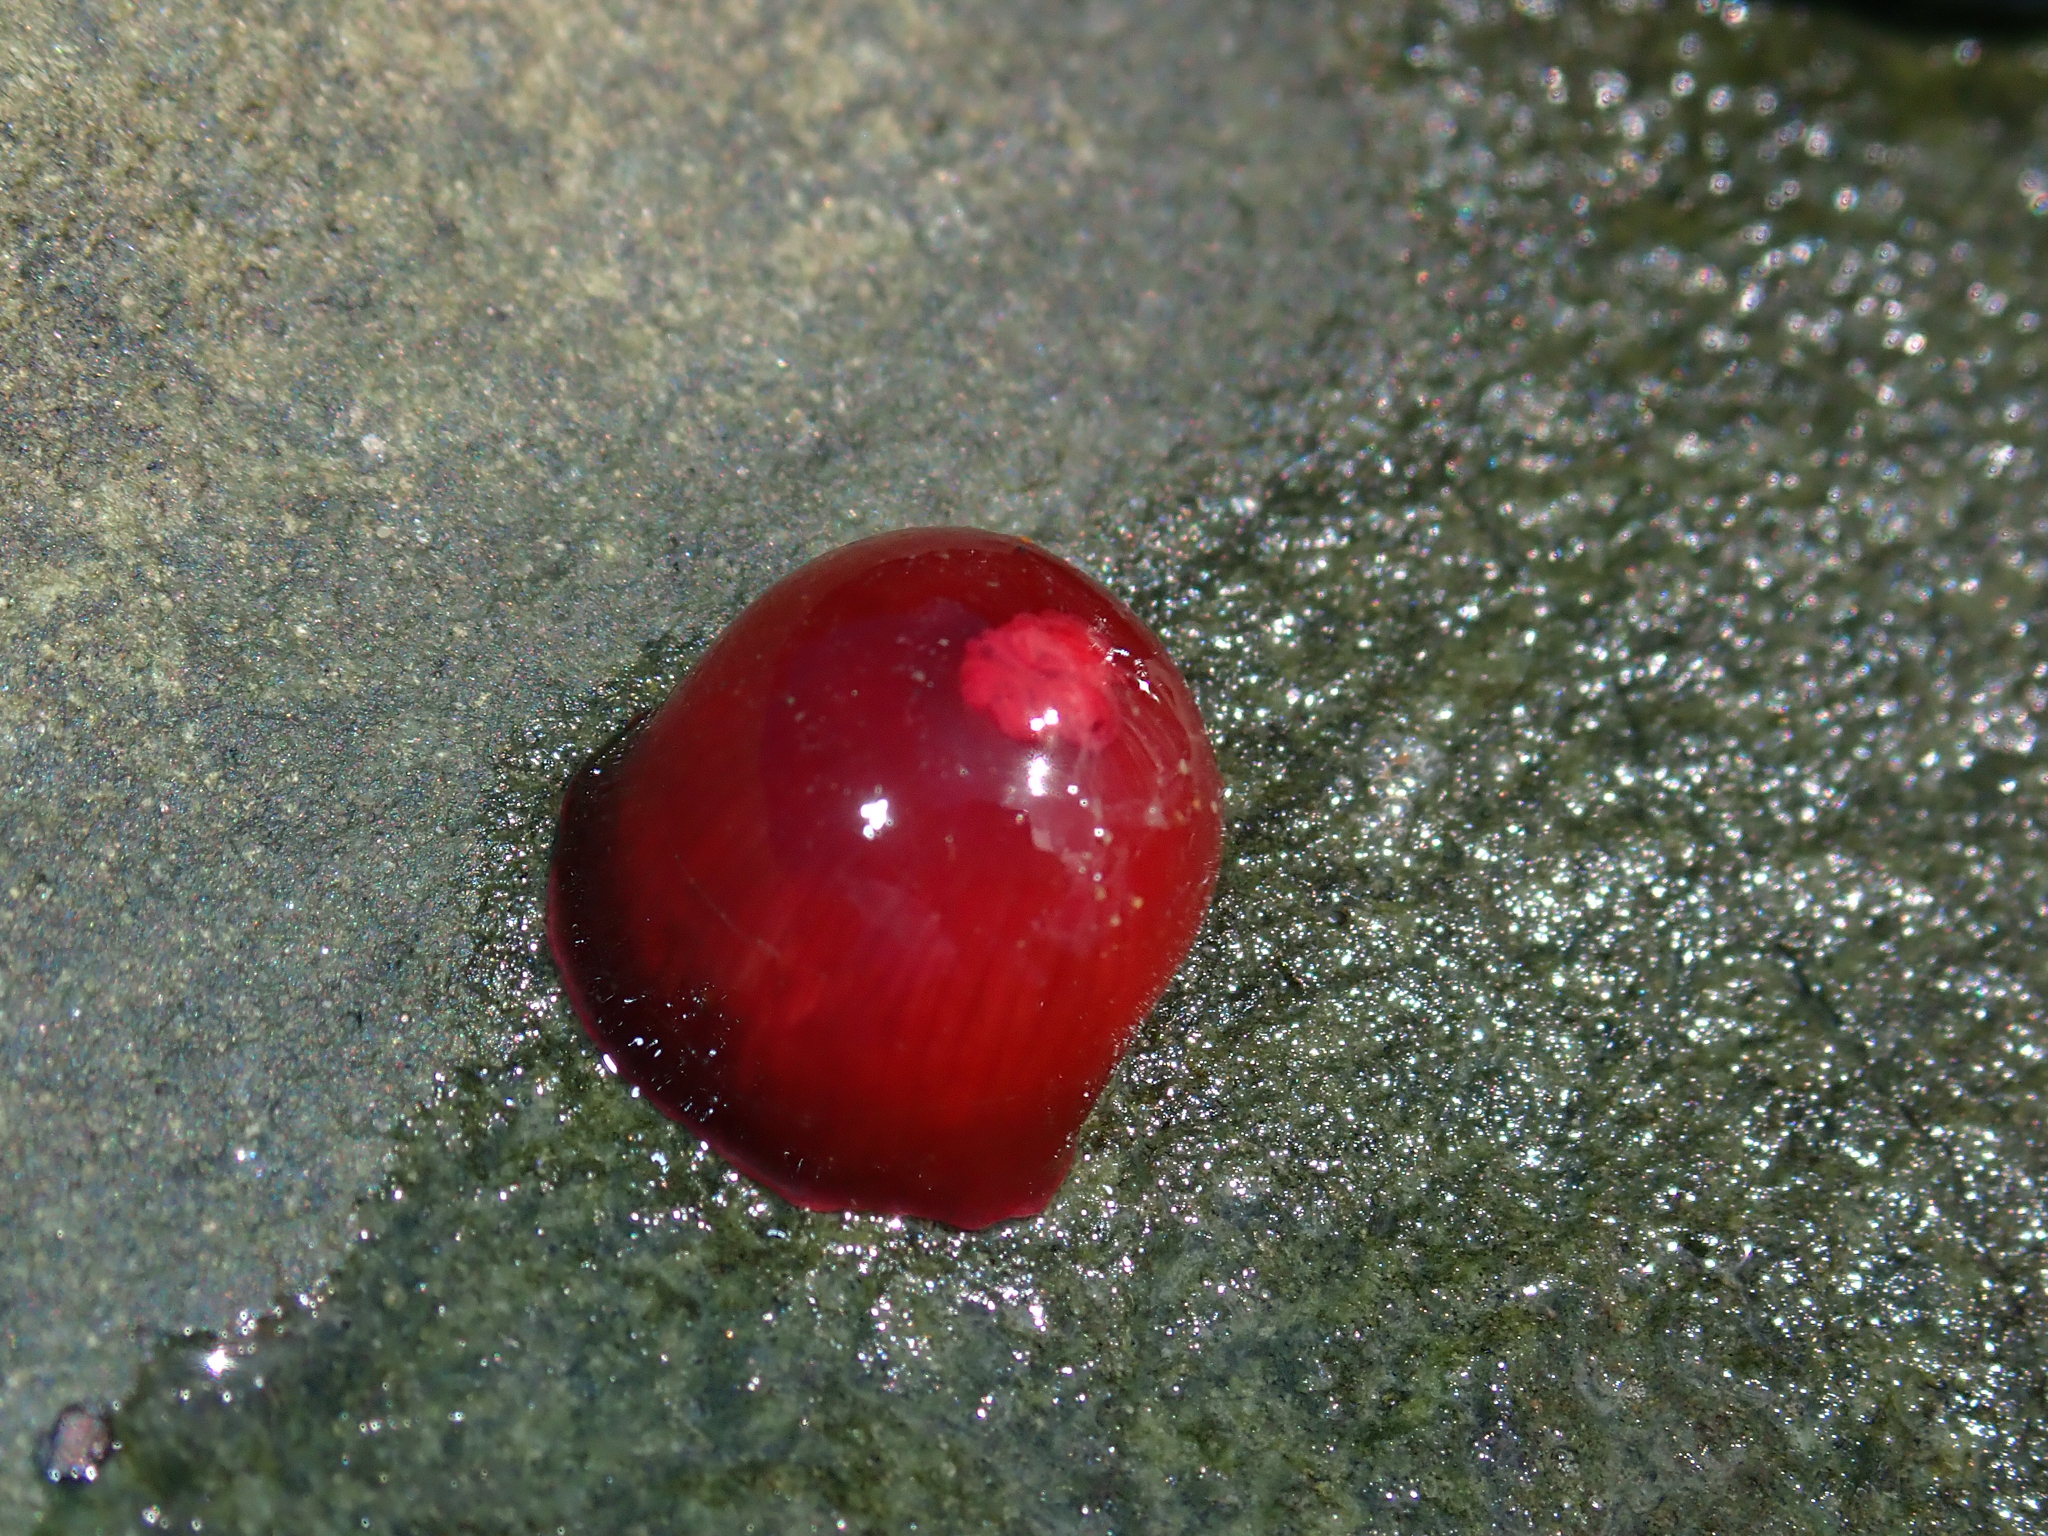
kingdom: Animalia
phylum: Cnidaria
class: Anthozoa
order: Actiniaria
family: Actiniidae
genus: Actinia
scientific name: Actinia tenebrosa
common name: Waratah anemone
